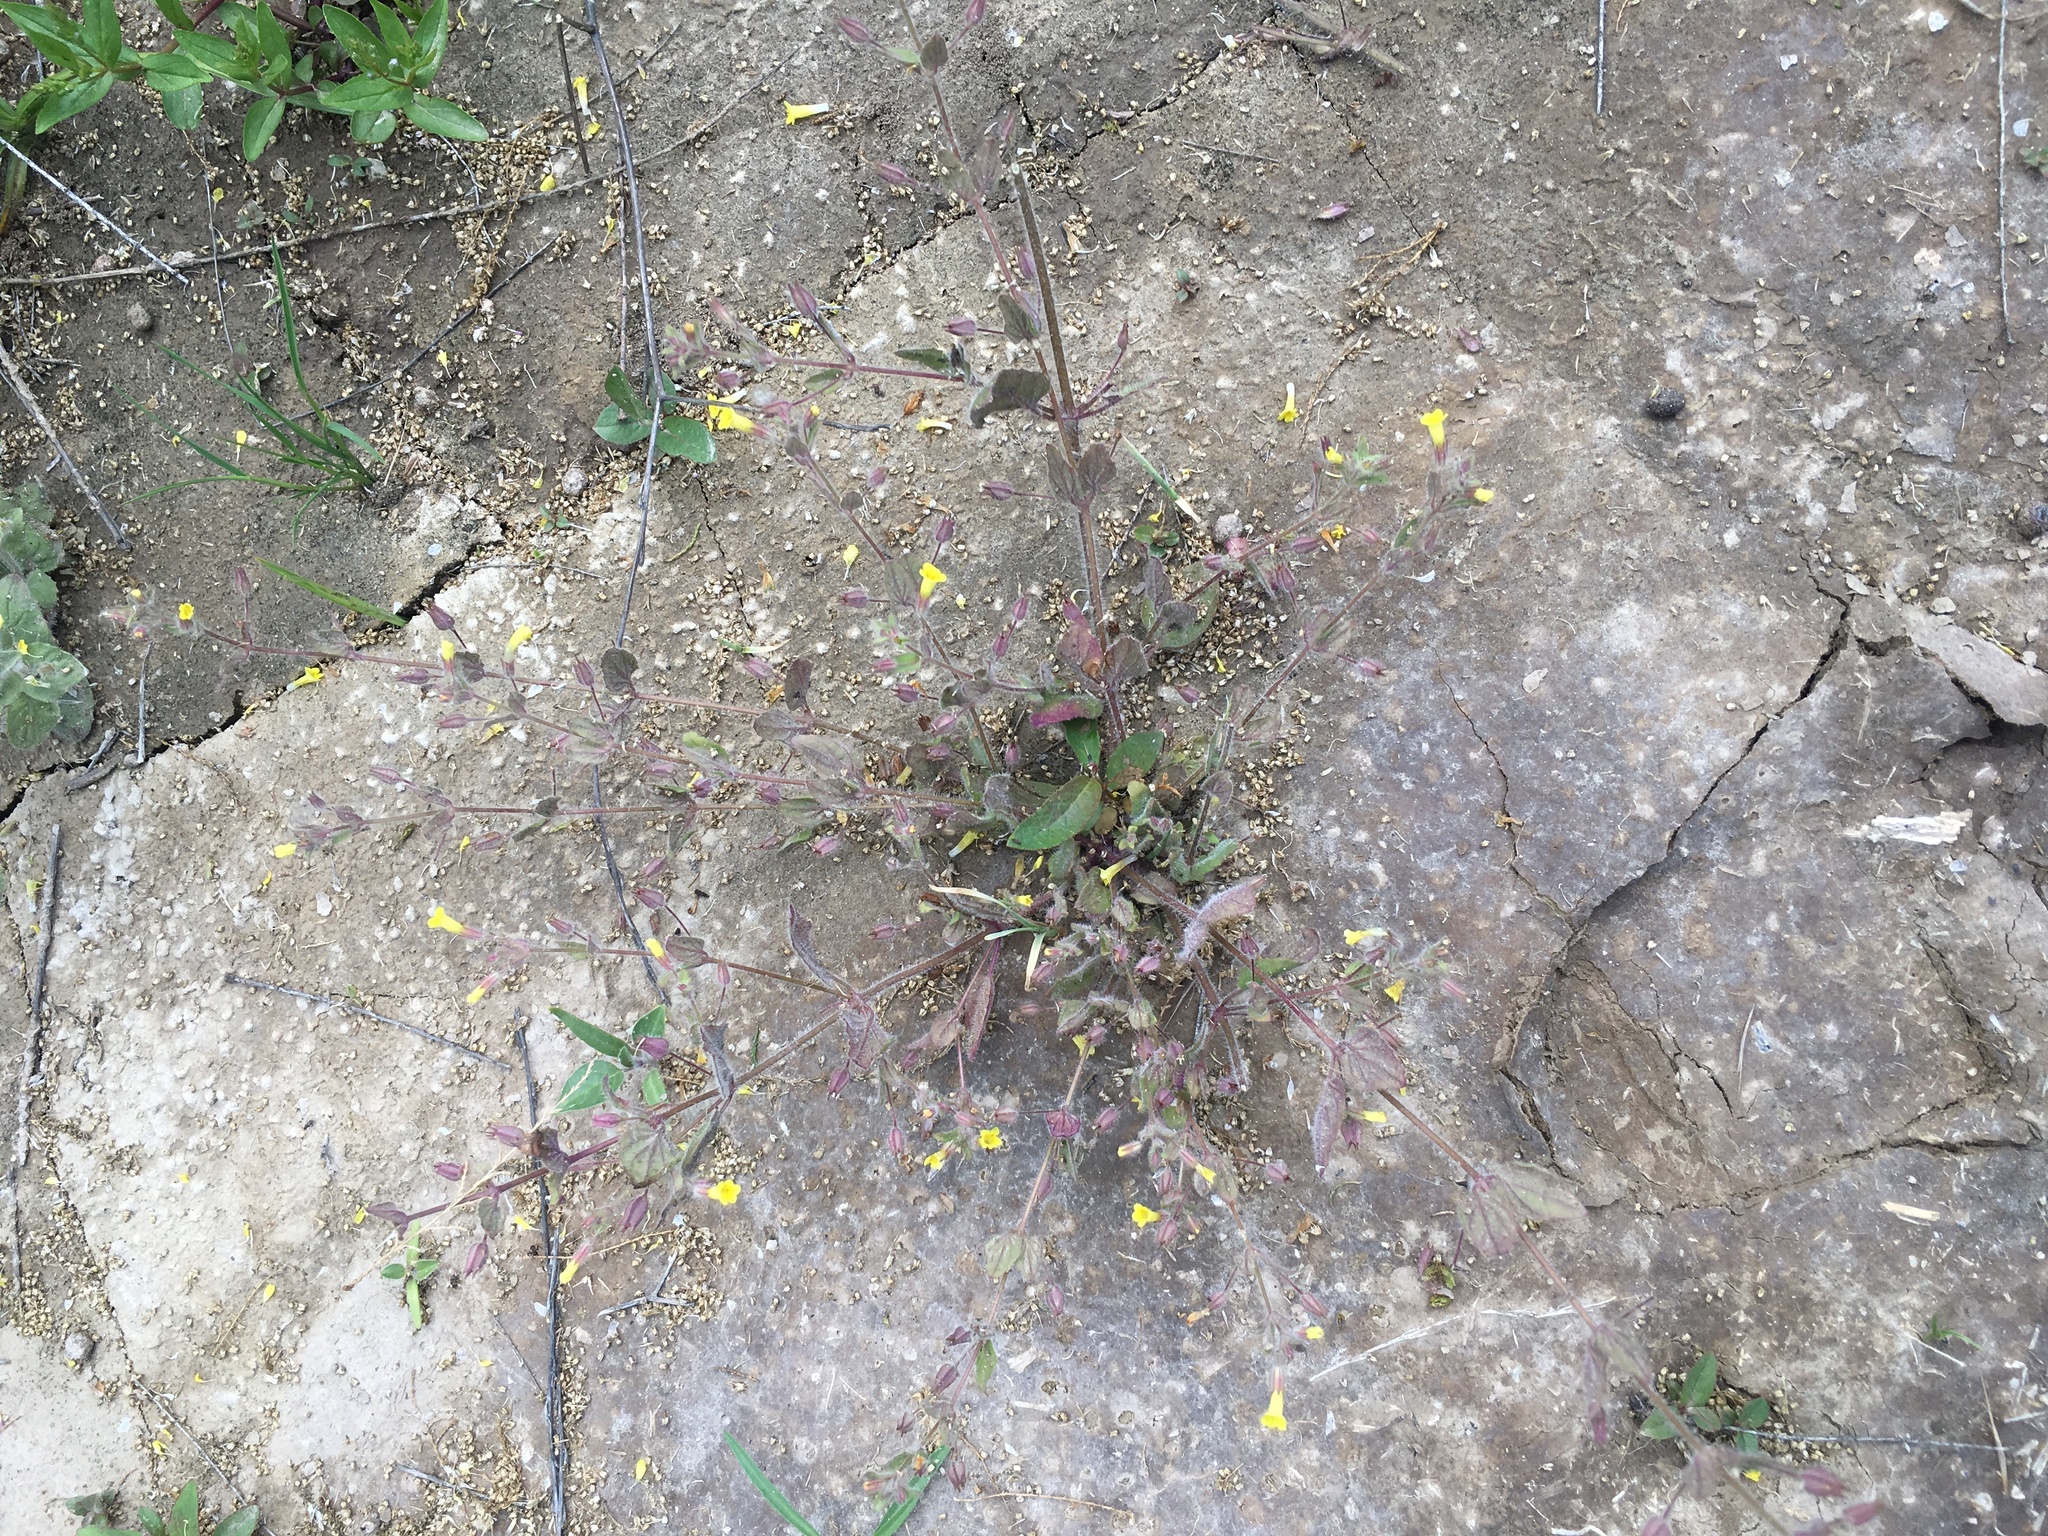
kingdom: Plantae
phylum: Tracheophyta
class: Magnoliopsida
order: Lamiales
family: Phrymaceae
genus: Erythranthe
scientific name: Erythranthe floribunda
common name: Floriferous monkeyflower
